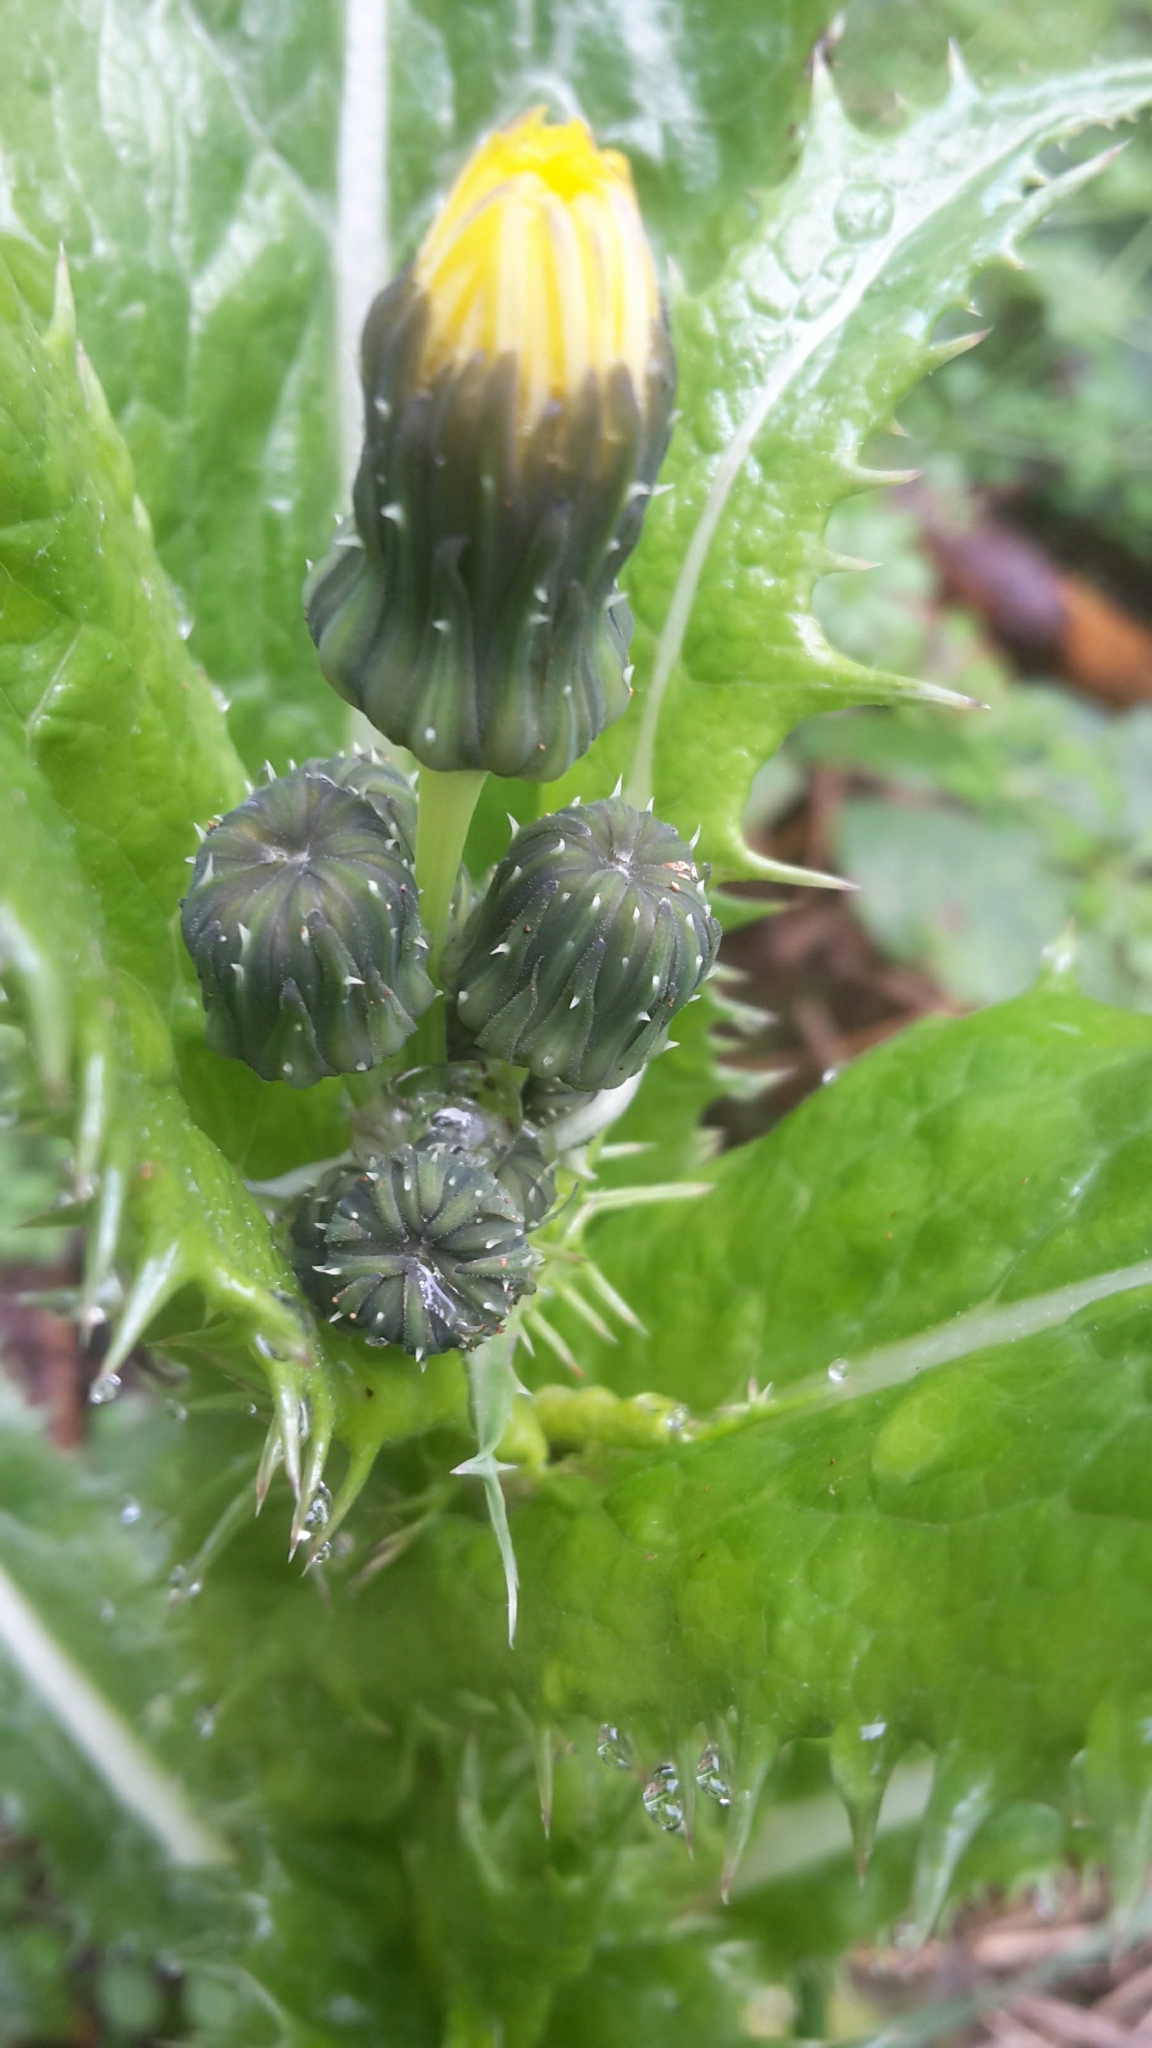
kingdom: Plantae
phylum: Tracheophyta
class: Magnoliopsida
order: Asterales
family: Asteraceae
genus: Sonchus
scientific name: Sonchus asper
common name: Prickly sow-thistle
